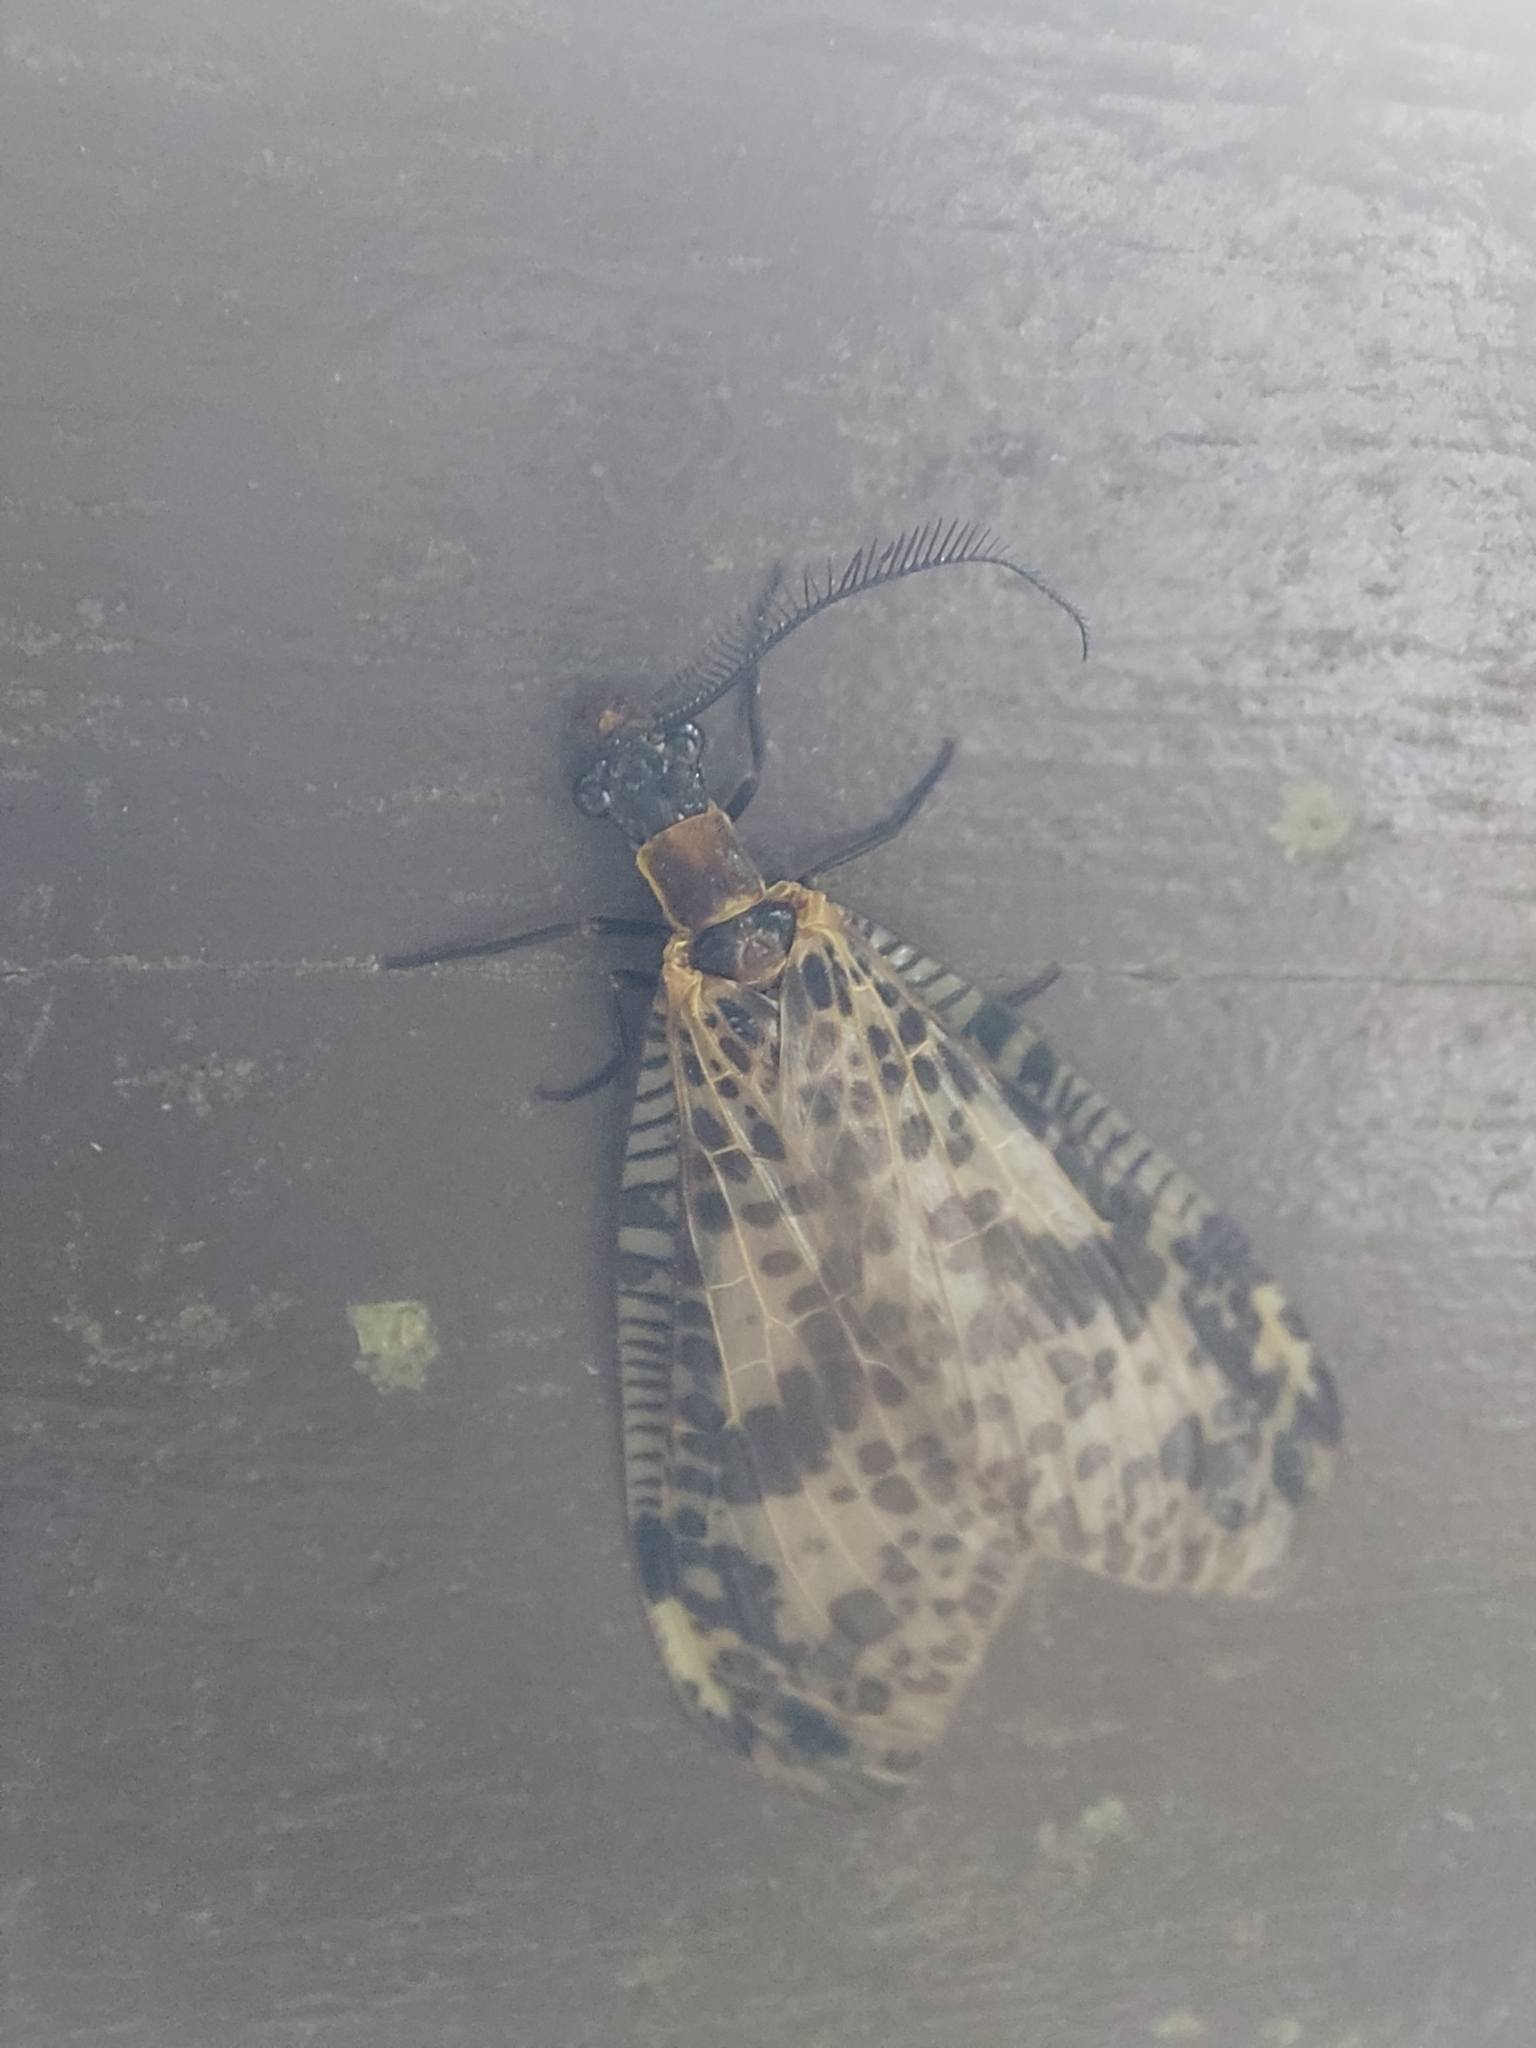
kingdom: Animalia
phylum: Arthropoda
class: Insecta
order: Megaloptera
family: Corydalidae
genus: Neochauliodes
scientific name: Neochauliodes formosanus
